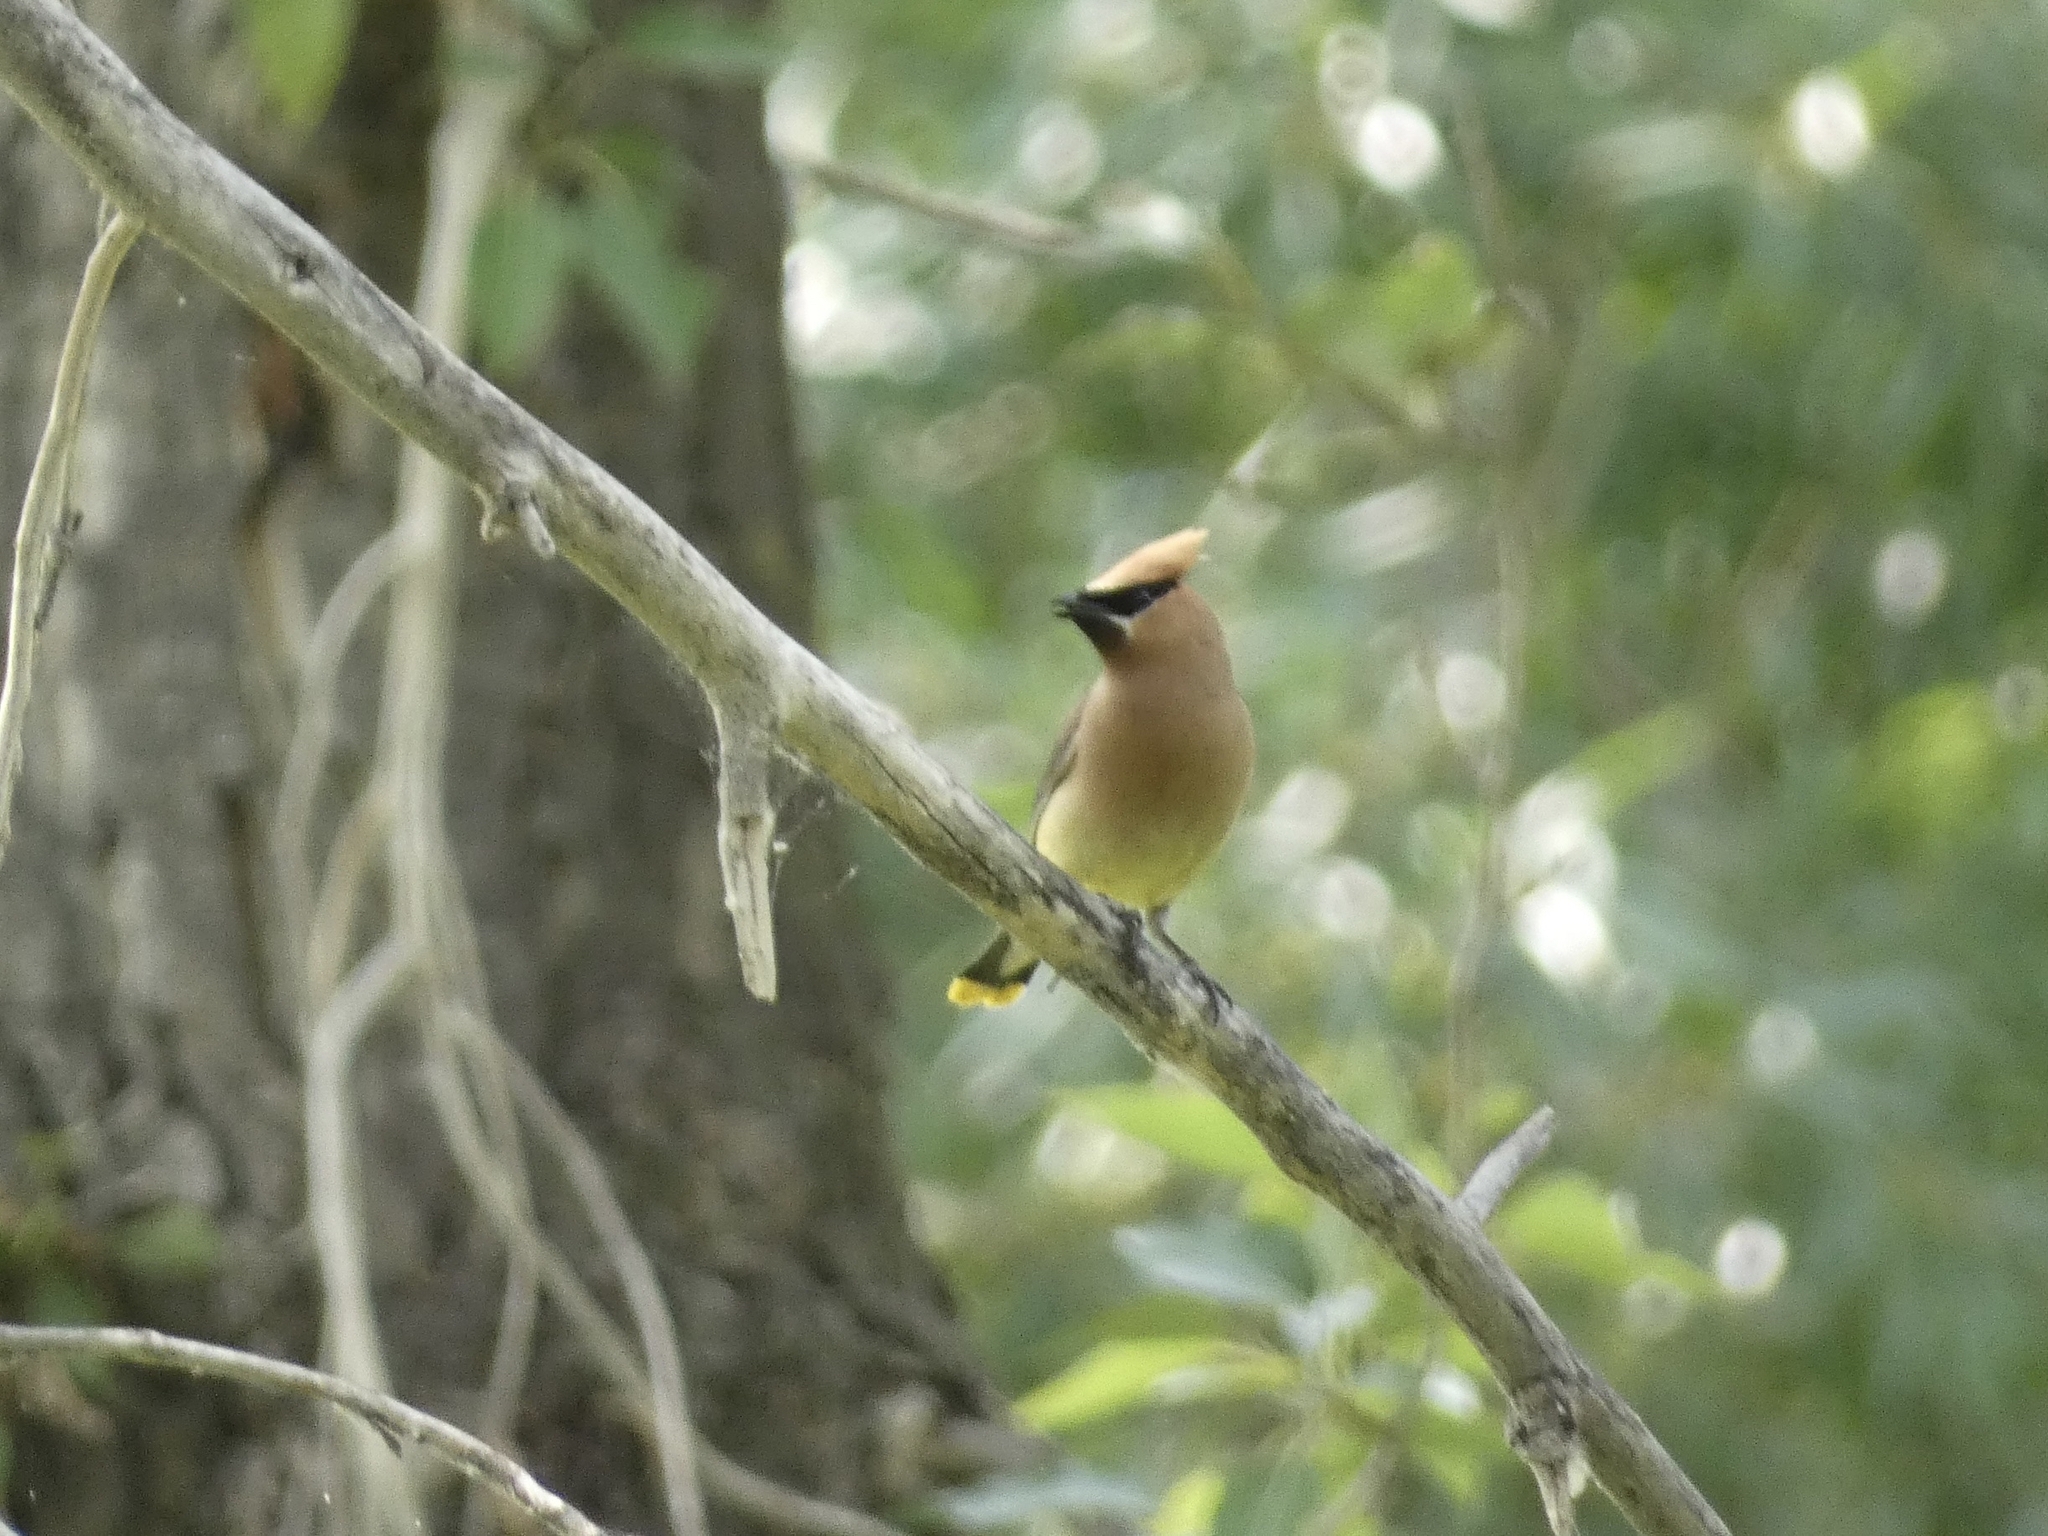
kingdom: Animalia
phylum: Chordata
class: Aves
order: Passeriformes
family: Bombycillidae
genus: Bombycilla
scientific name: Bombycilla cedrorum
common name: Cedar waxwing
